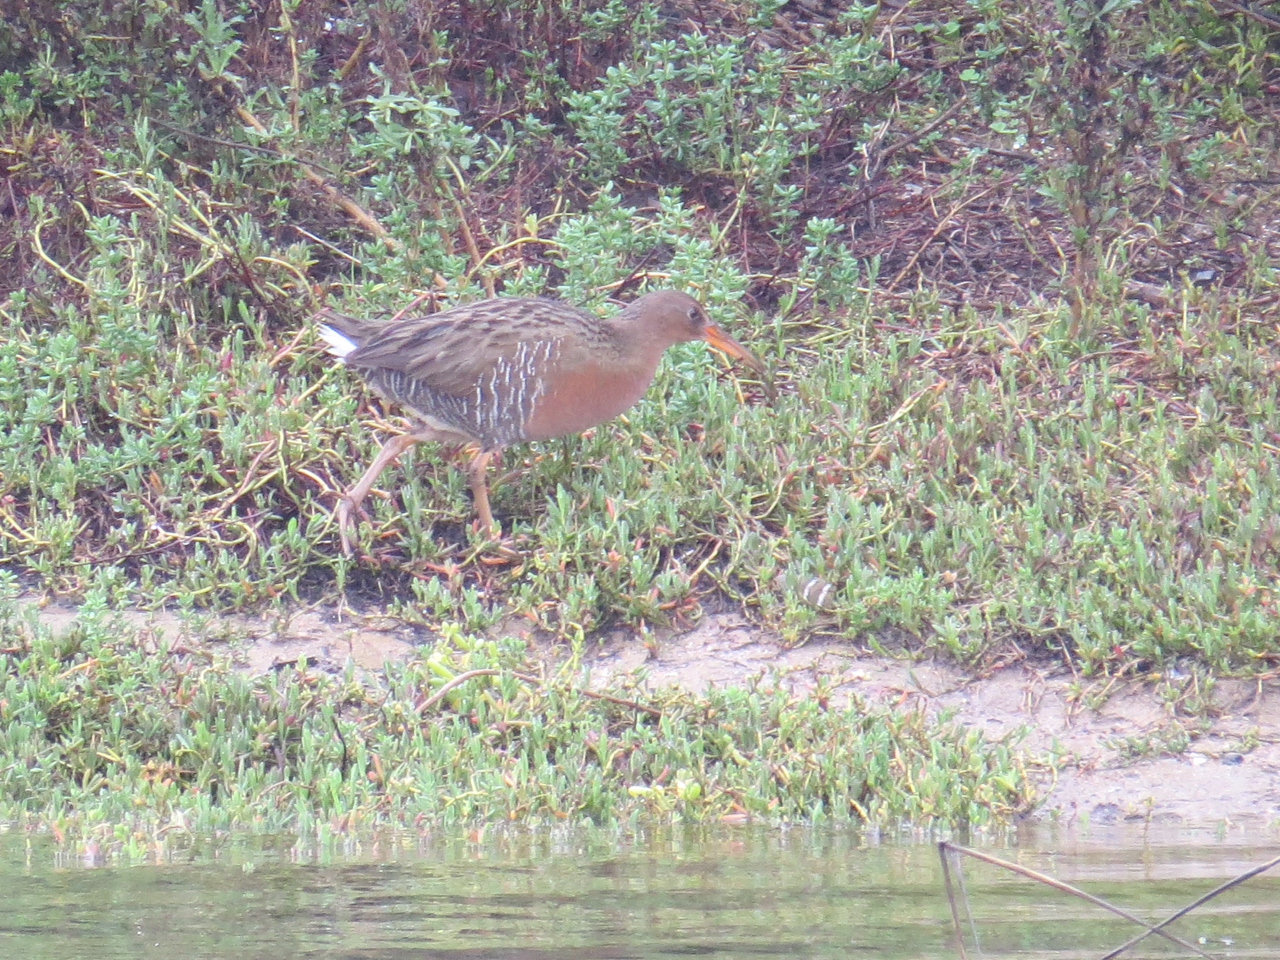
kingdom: Animalia
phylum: Chordata
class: Aves
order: Gruiformes
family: Rallidae
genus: Rallus
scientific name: Rallus obsoletus
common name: Ridgway's rail
